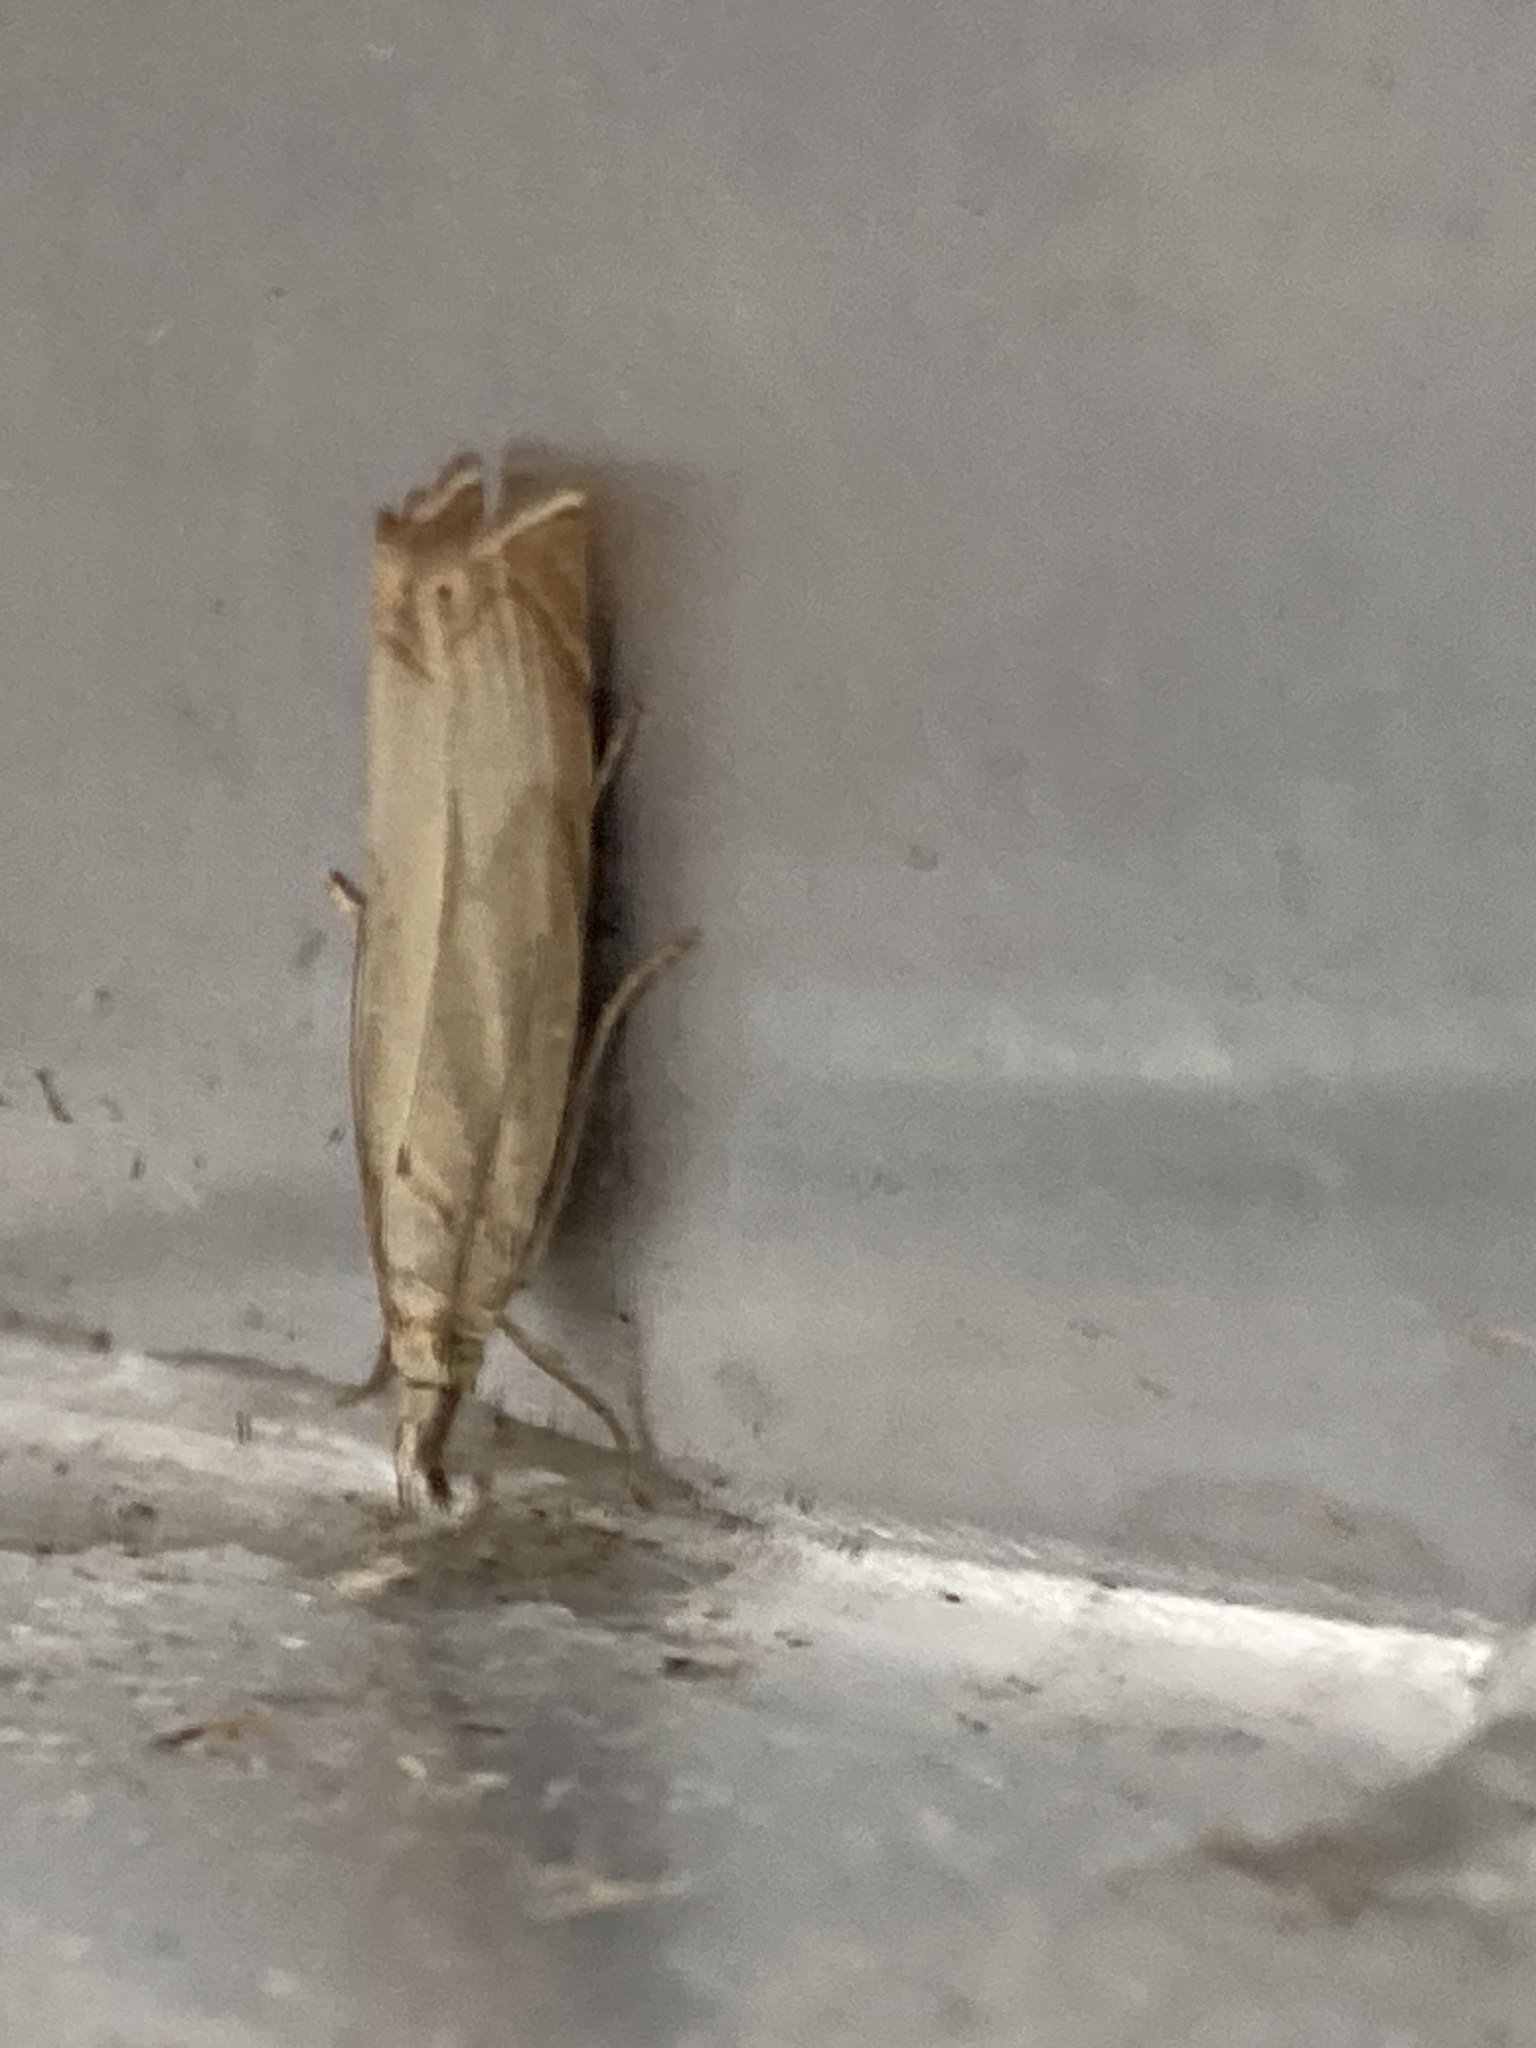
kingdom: Animalia
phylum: Arthropoda
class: Insecta
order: Lepidoptera
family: Crambidae
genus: Chrysoteuchia
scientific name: Chrysoteuchia culmella
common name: Garden grass-veneer
